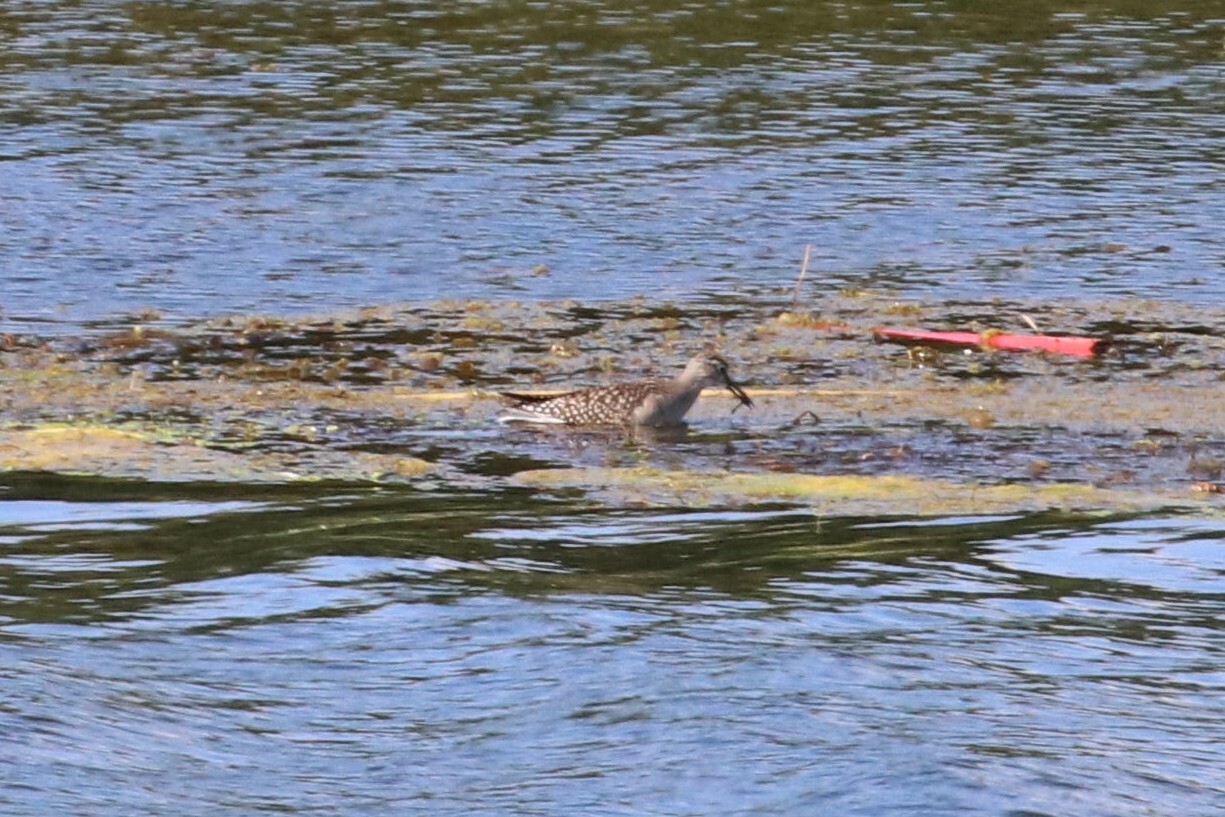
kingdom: Animalia
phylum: Chordata
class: Aves
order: Charadriiformes
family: Scolopacidae
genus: Tringa
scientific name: Tringa glareola
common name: Wood sandpiper
